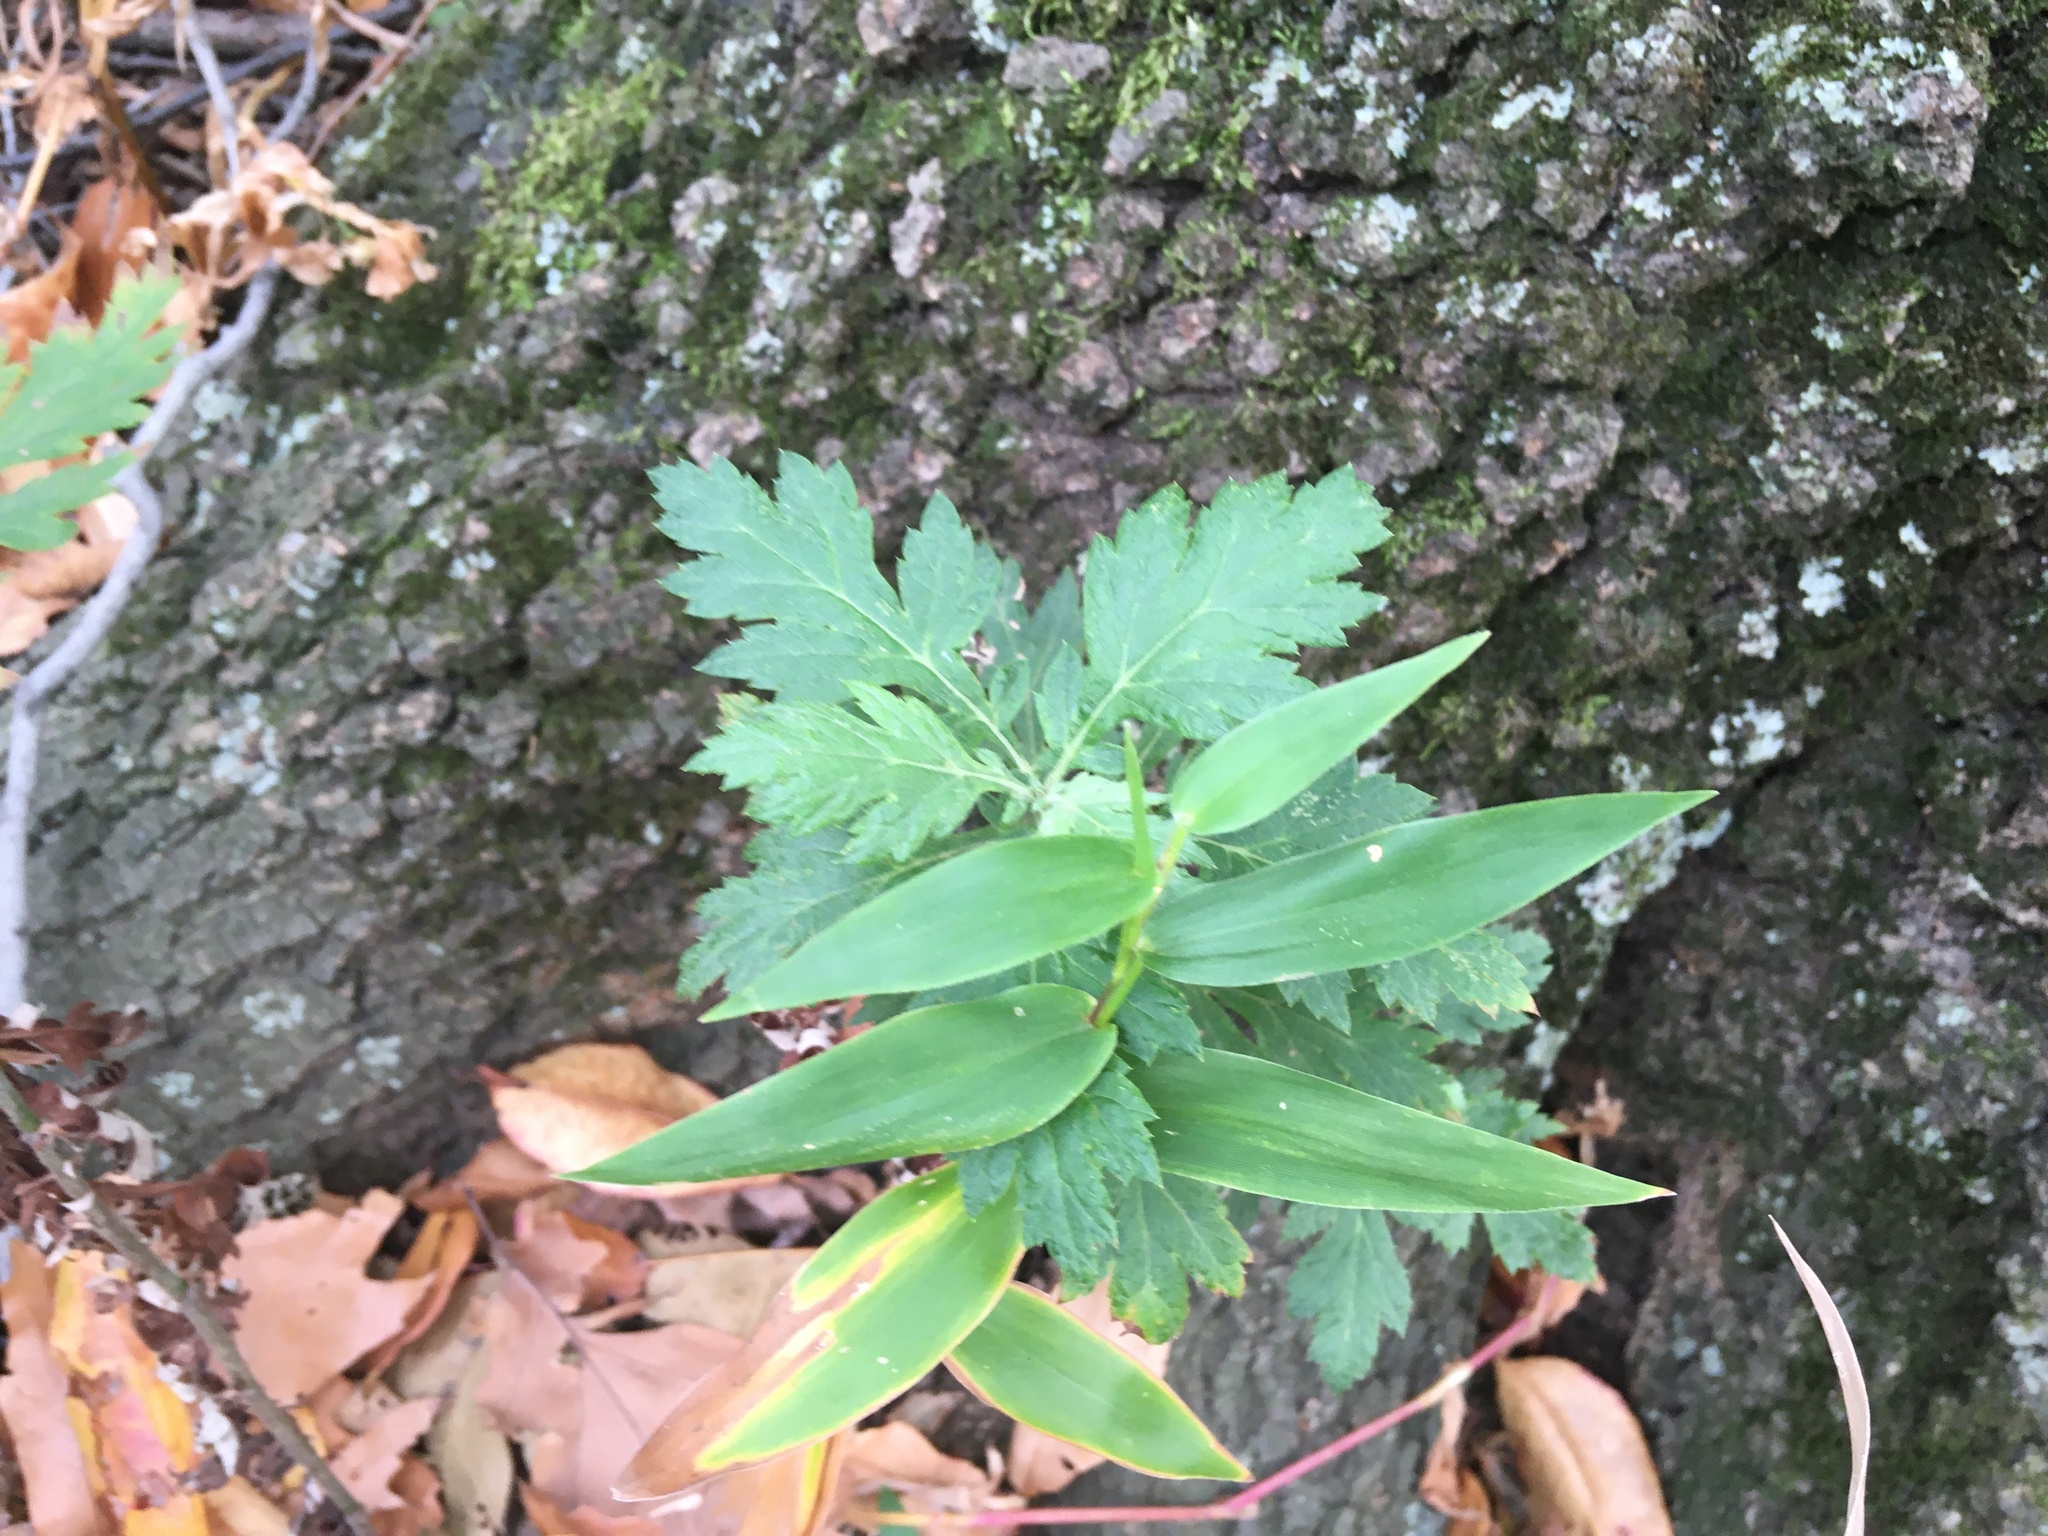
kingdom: Plantae
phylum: Tracheophyta
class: Magnoliopsida
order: Asterales
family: Asteraceae
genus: Artemisia
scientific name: Artemisia vulgaris
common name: Mugwort
